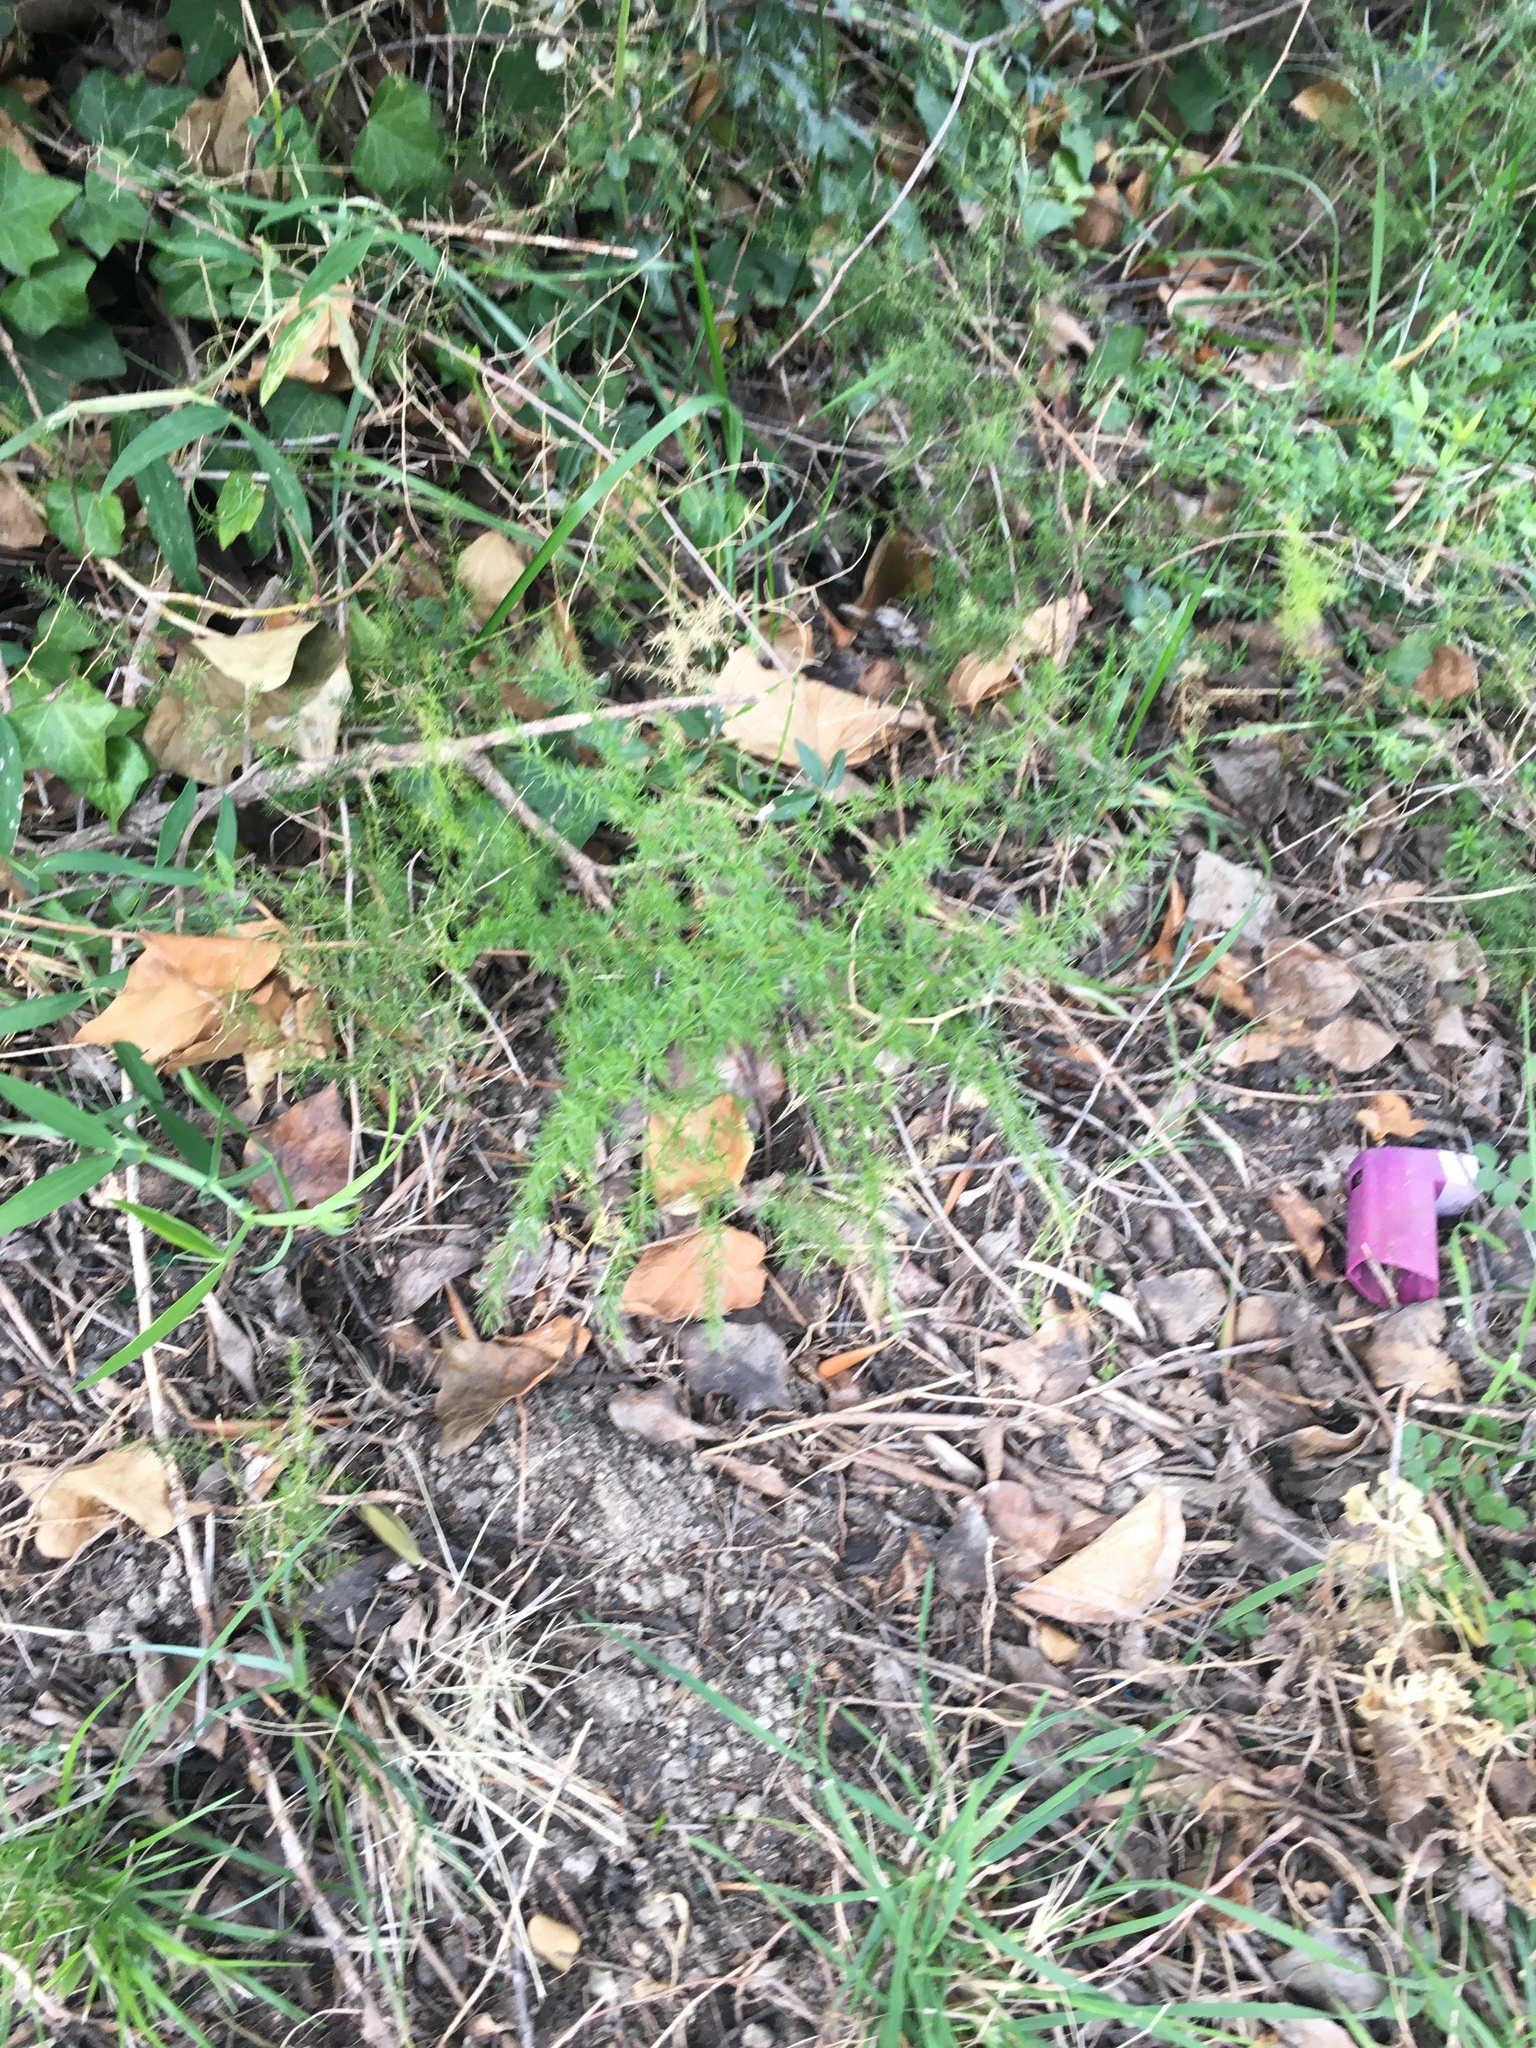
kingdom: Plantae
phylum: Tracheophyta
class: Liliopsida
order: Asparagales
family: Asparagaceae
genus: Asparagus
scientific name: Asparagus acutifolius
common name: Wild asparagus
